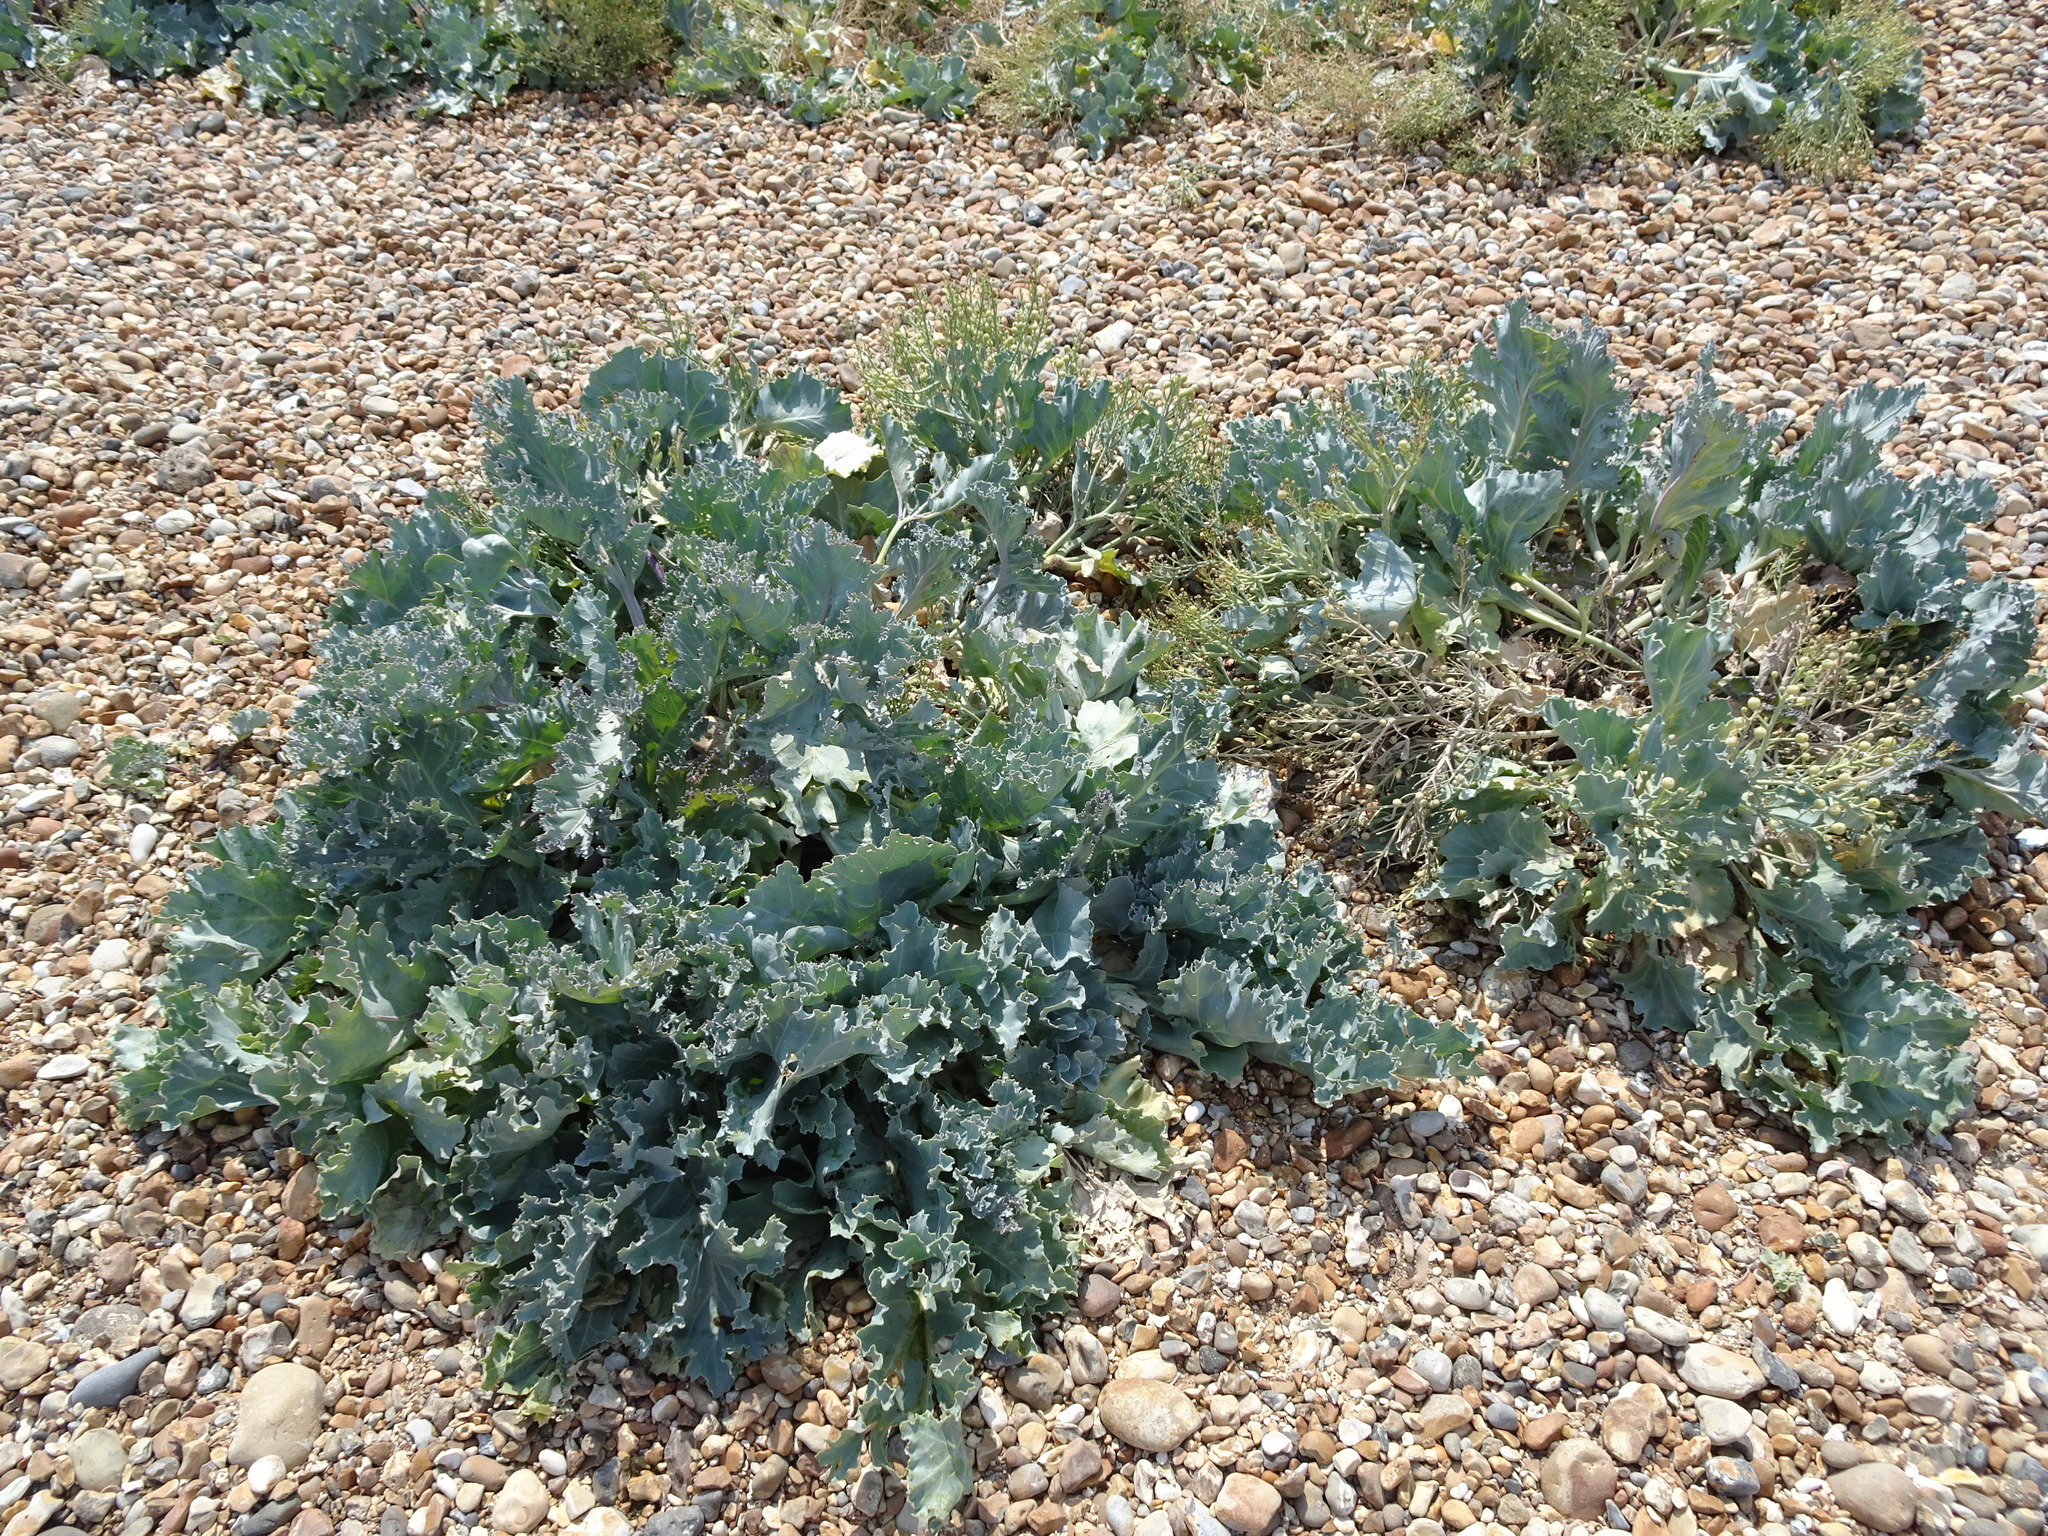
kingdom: Plantae
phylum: Tracheophyta
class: Magnoliopsida
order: Brassicales
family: Brassicaceae
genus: Crambe
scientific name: Crambe maritima
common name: Sea-kale
